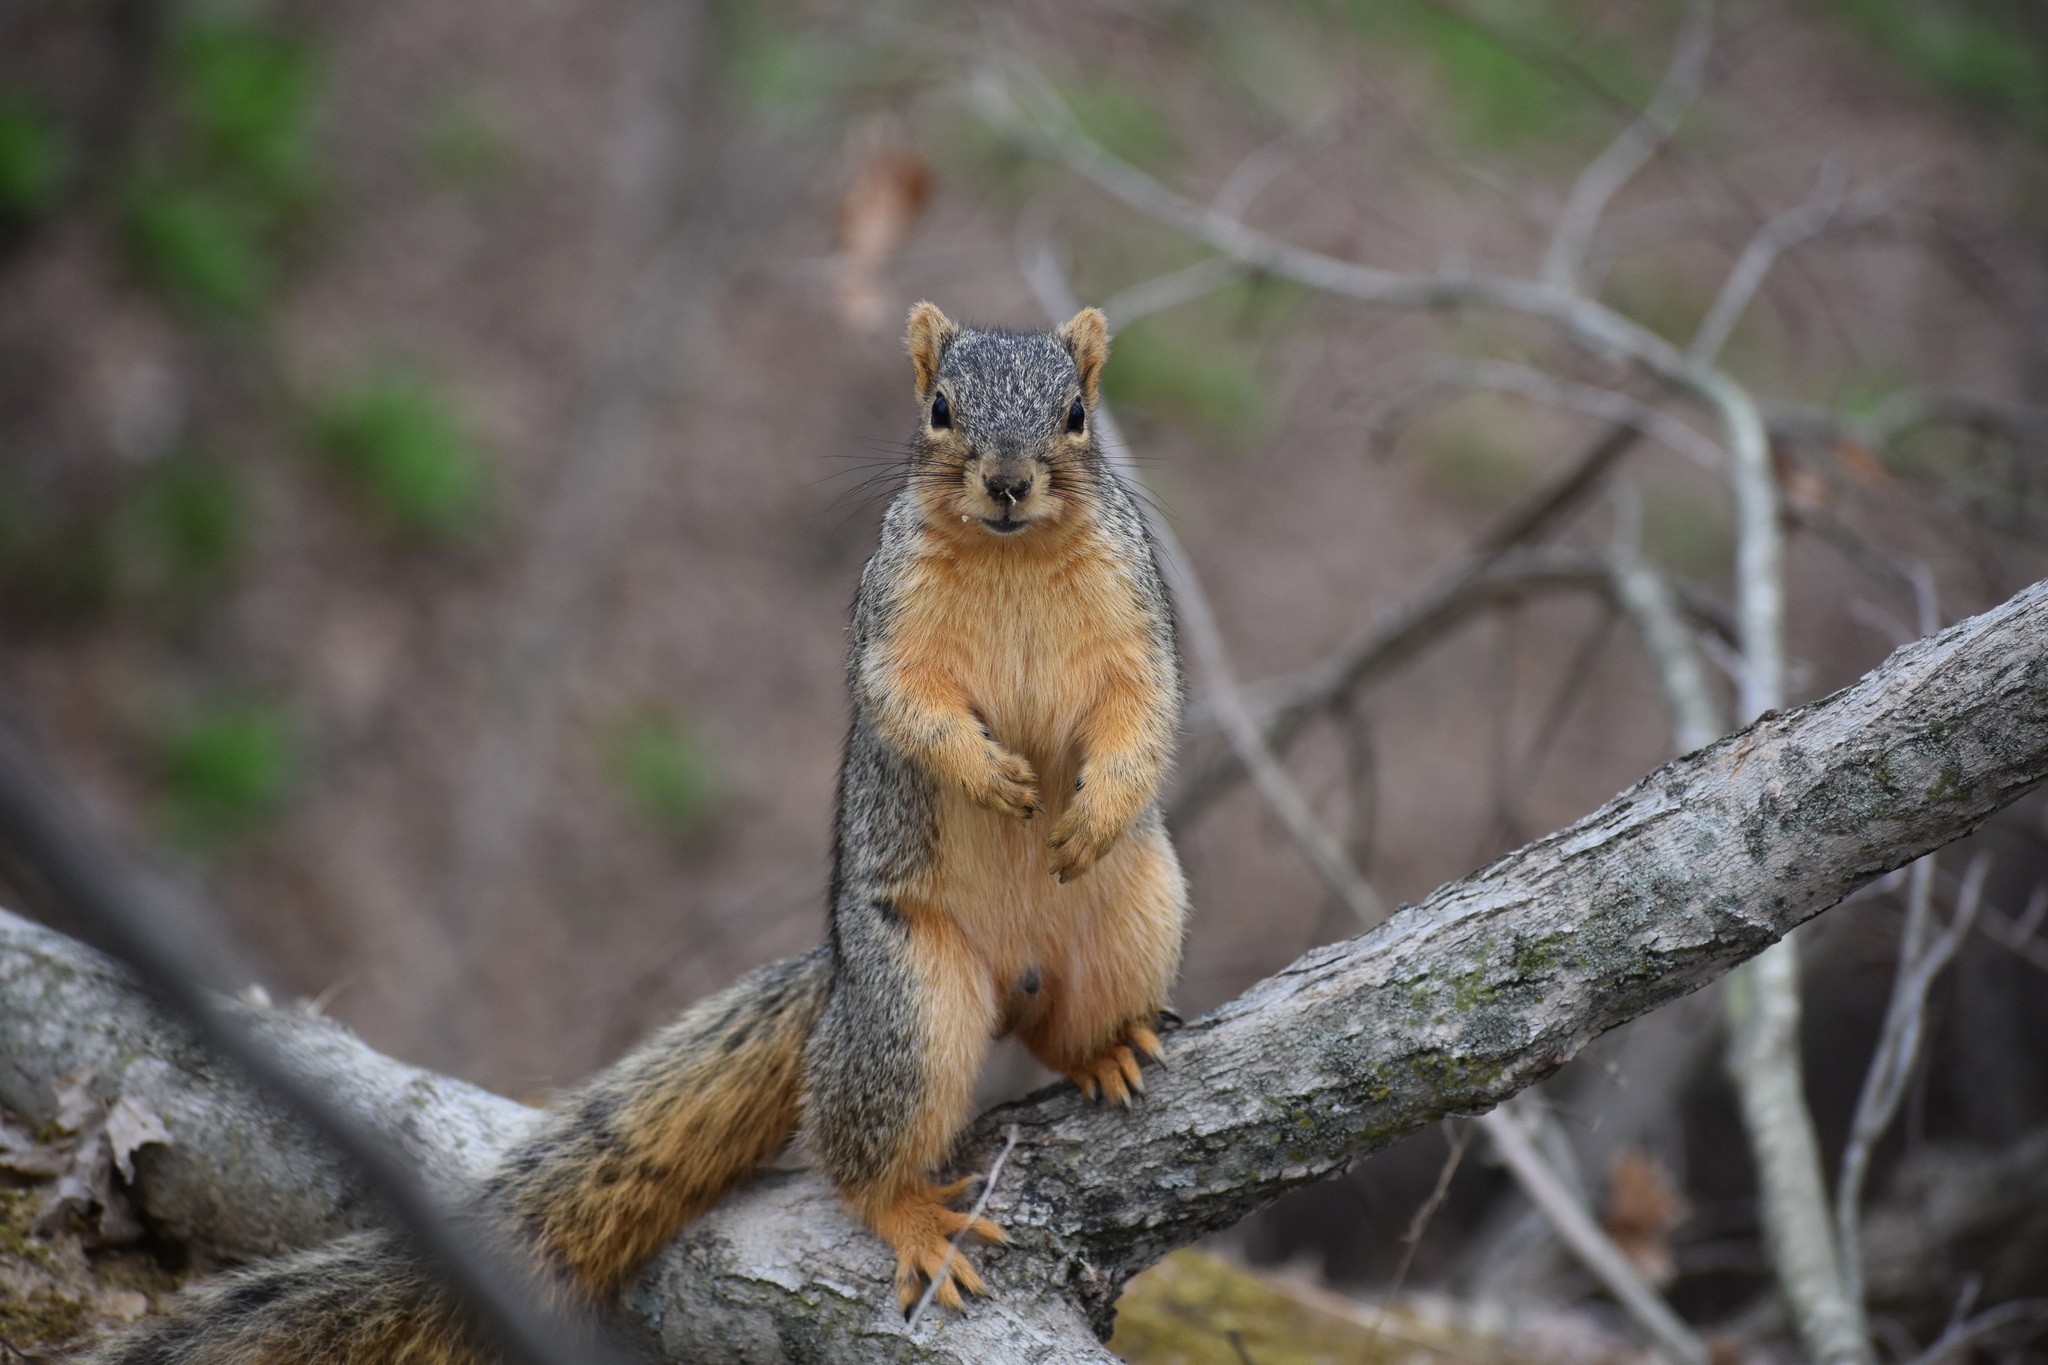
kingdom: Animalia
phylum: Chordata
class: Mammalia
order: Rodentia
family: Sciuridae
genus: Sciurus
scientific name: Sciurus niger
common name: Fox squirrel
